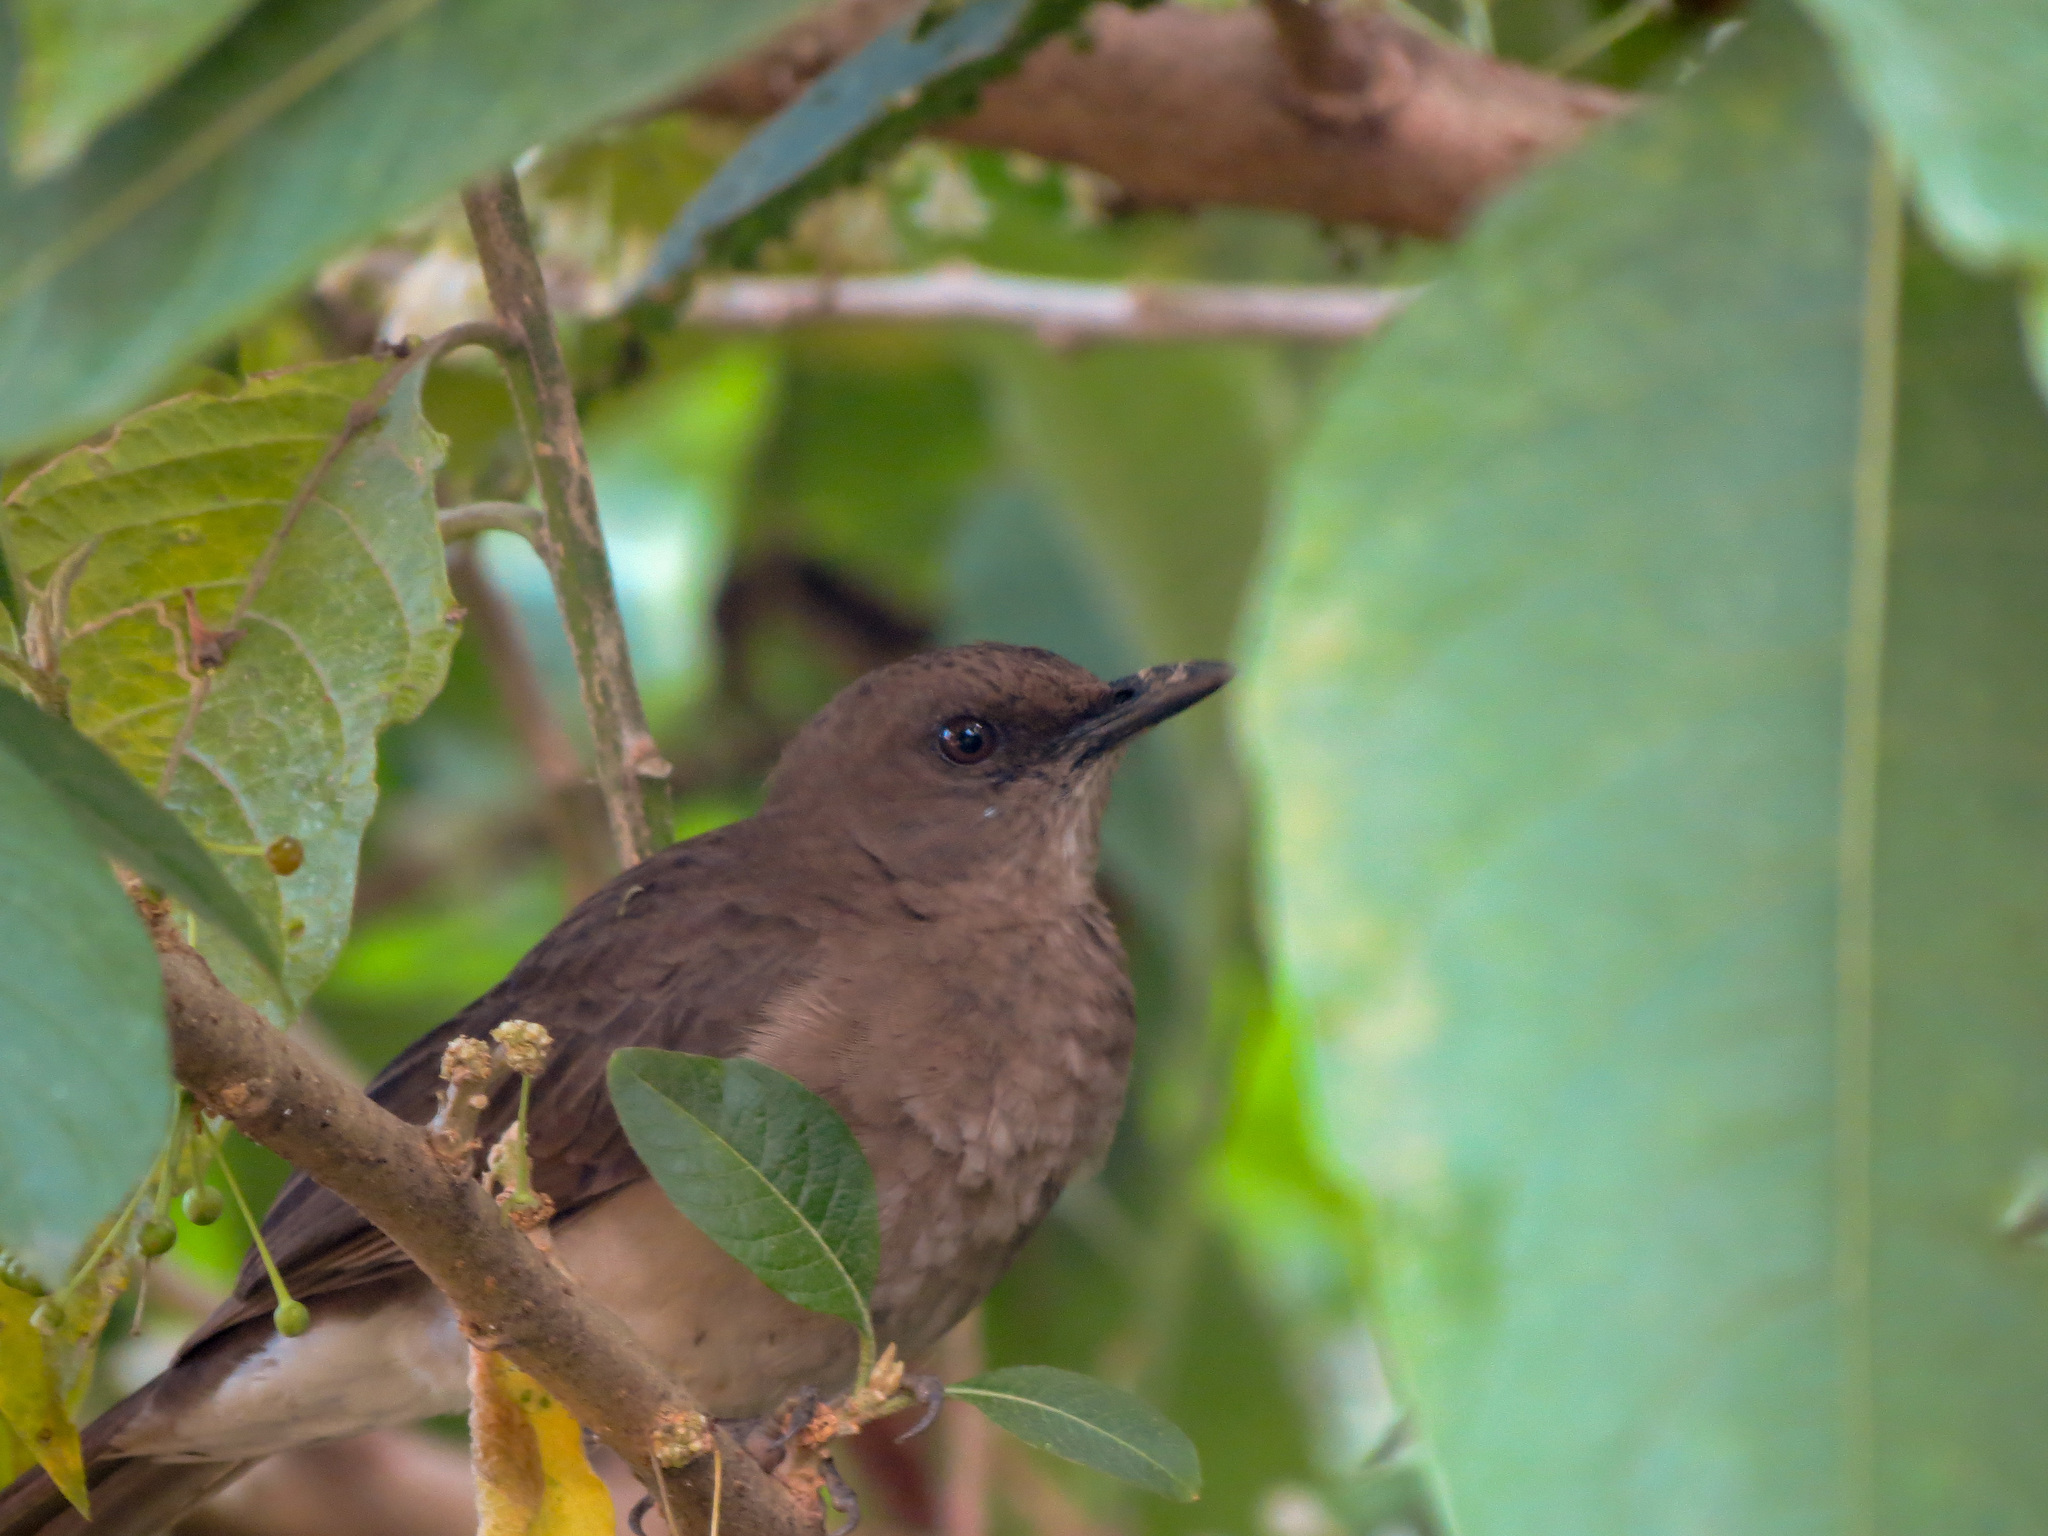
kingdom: Animalia
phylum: Chordata
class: Aves
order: Passeriformes
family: Turdidae
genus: Turdus
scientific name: Turdus ignobilis
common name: Black-billed thrush
